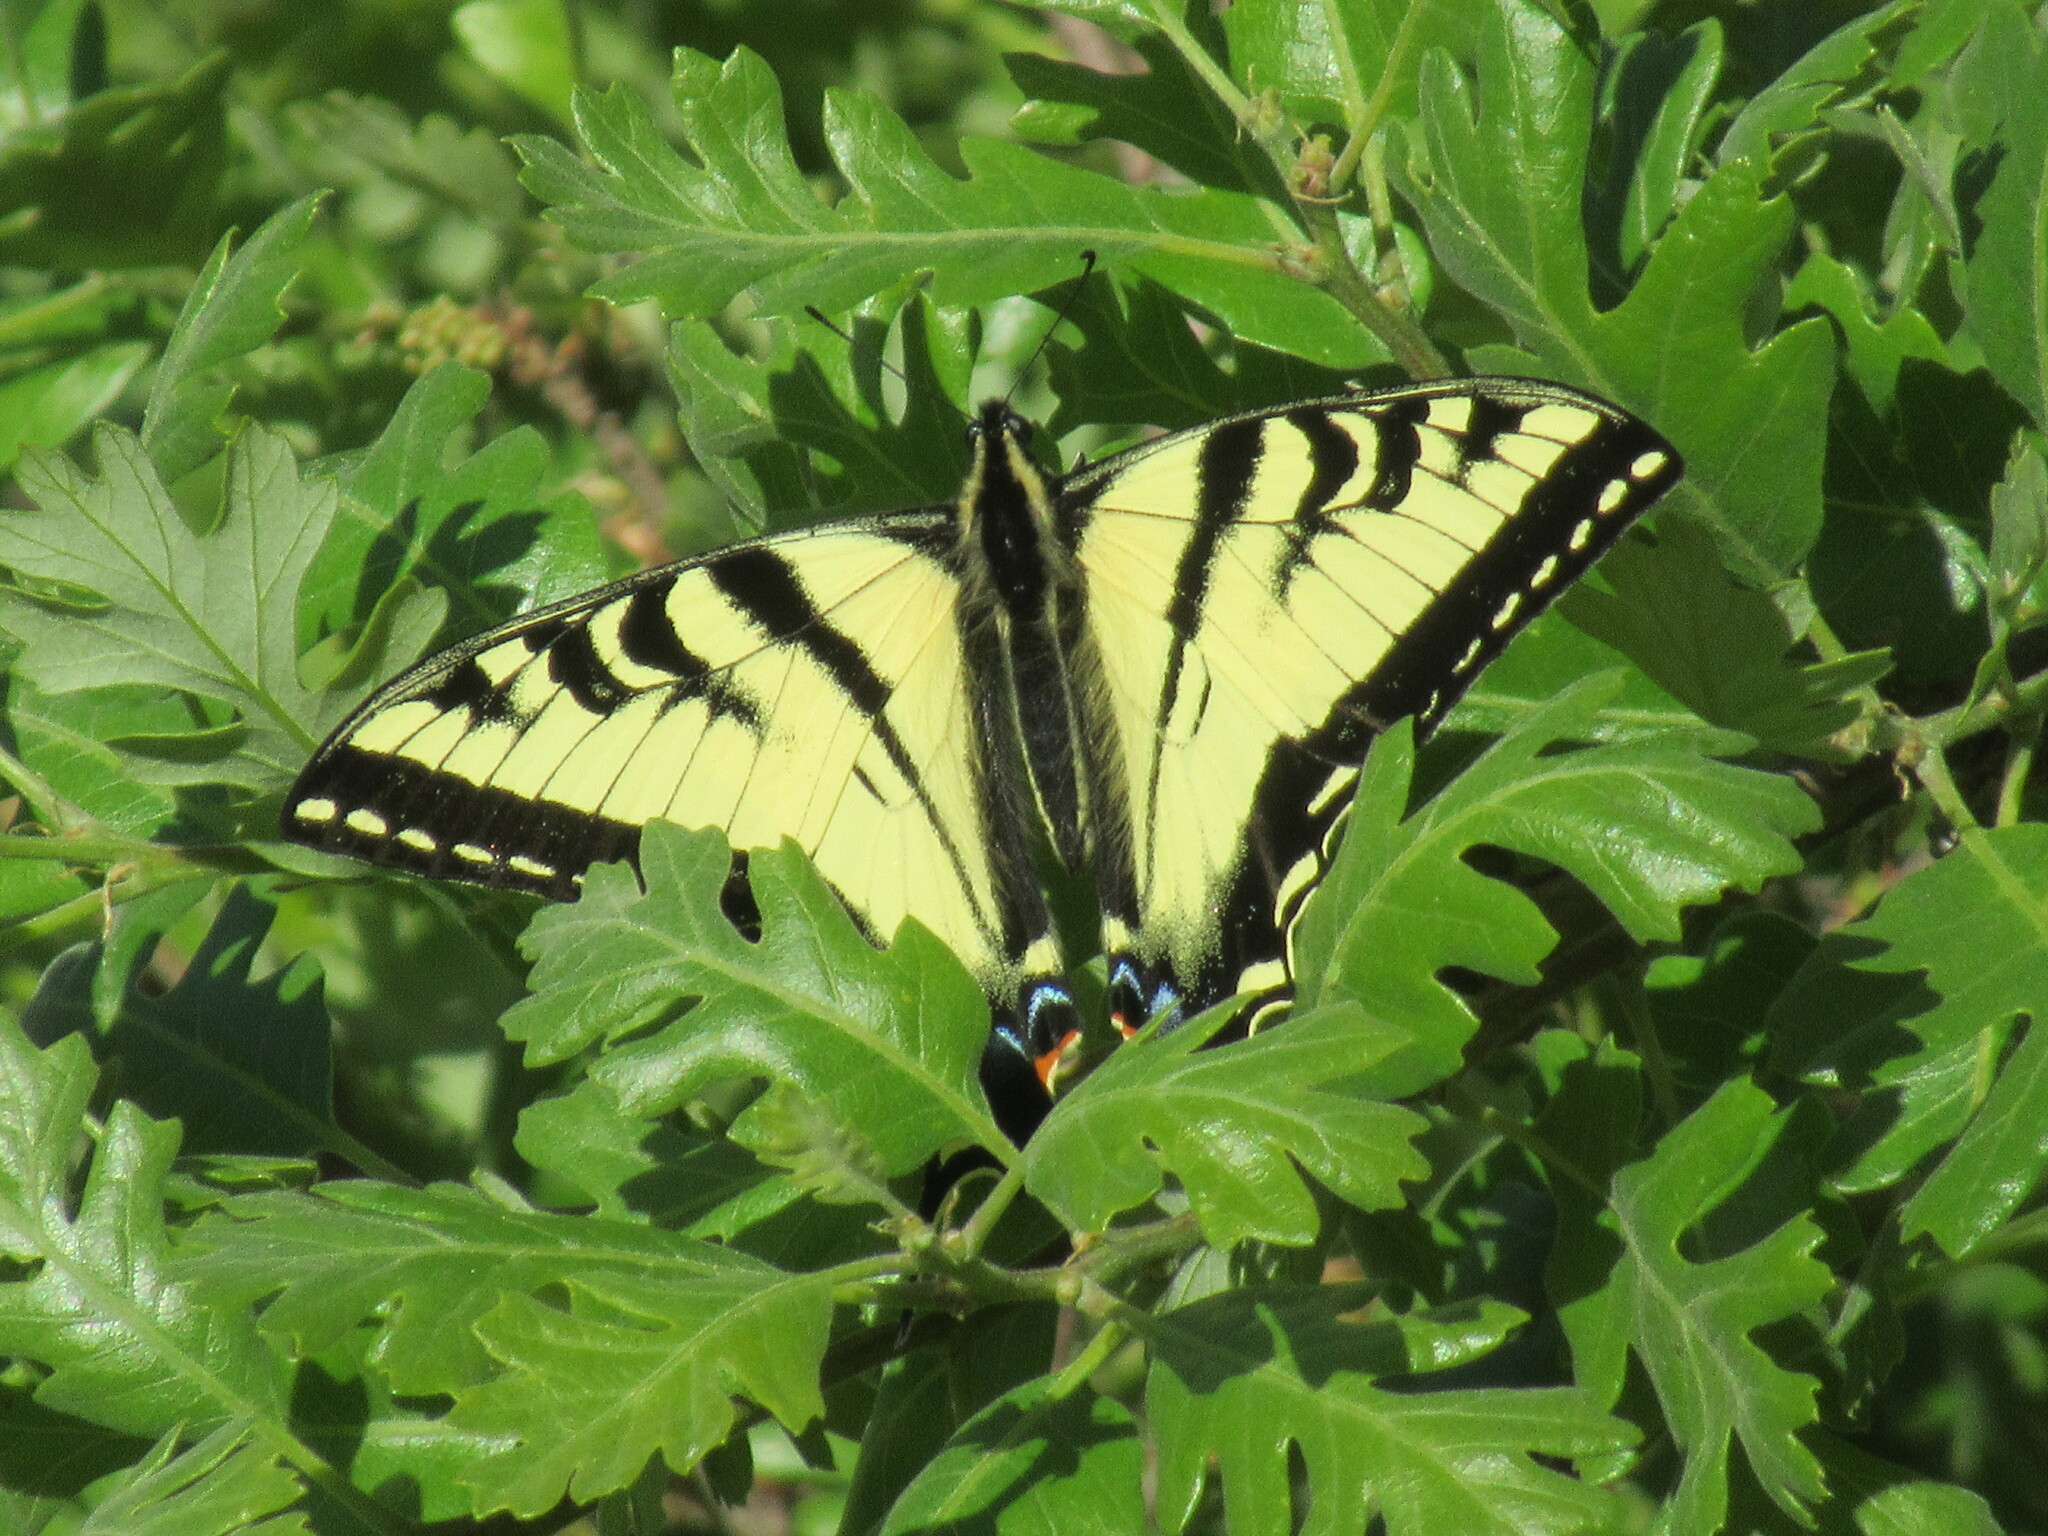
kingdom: Animalia
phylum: Arthropoda
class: Insecta
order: Lepidoptera
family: Papilionidae
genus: Papilio
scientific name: Papilio rutulus
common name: Western tiger swallowtail
